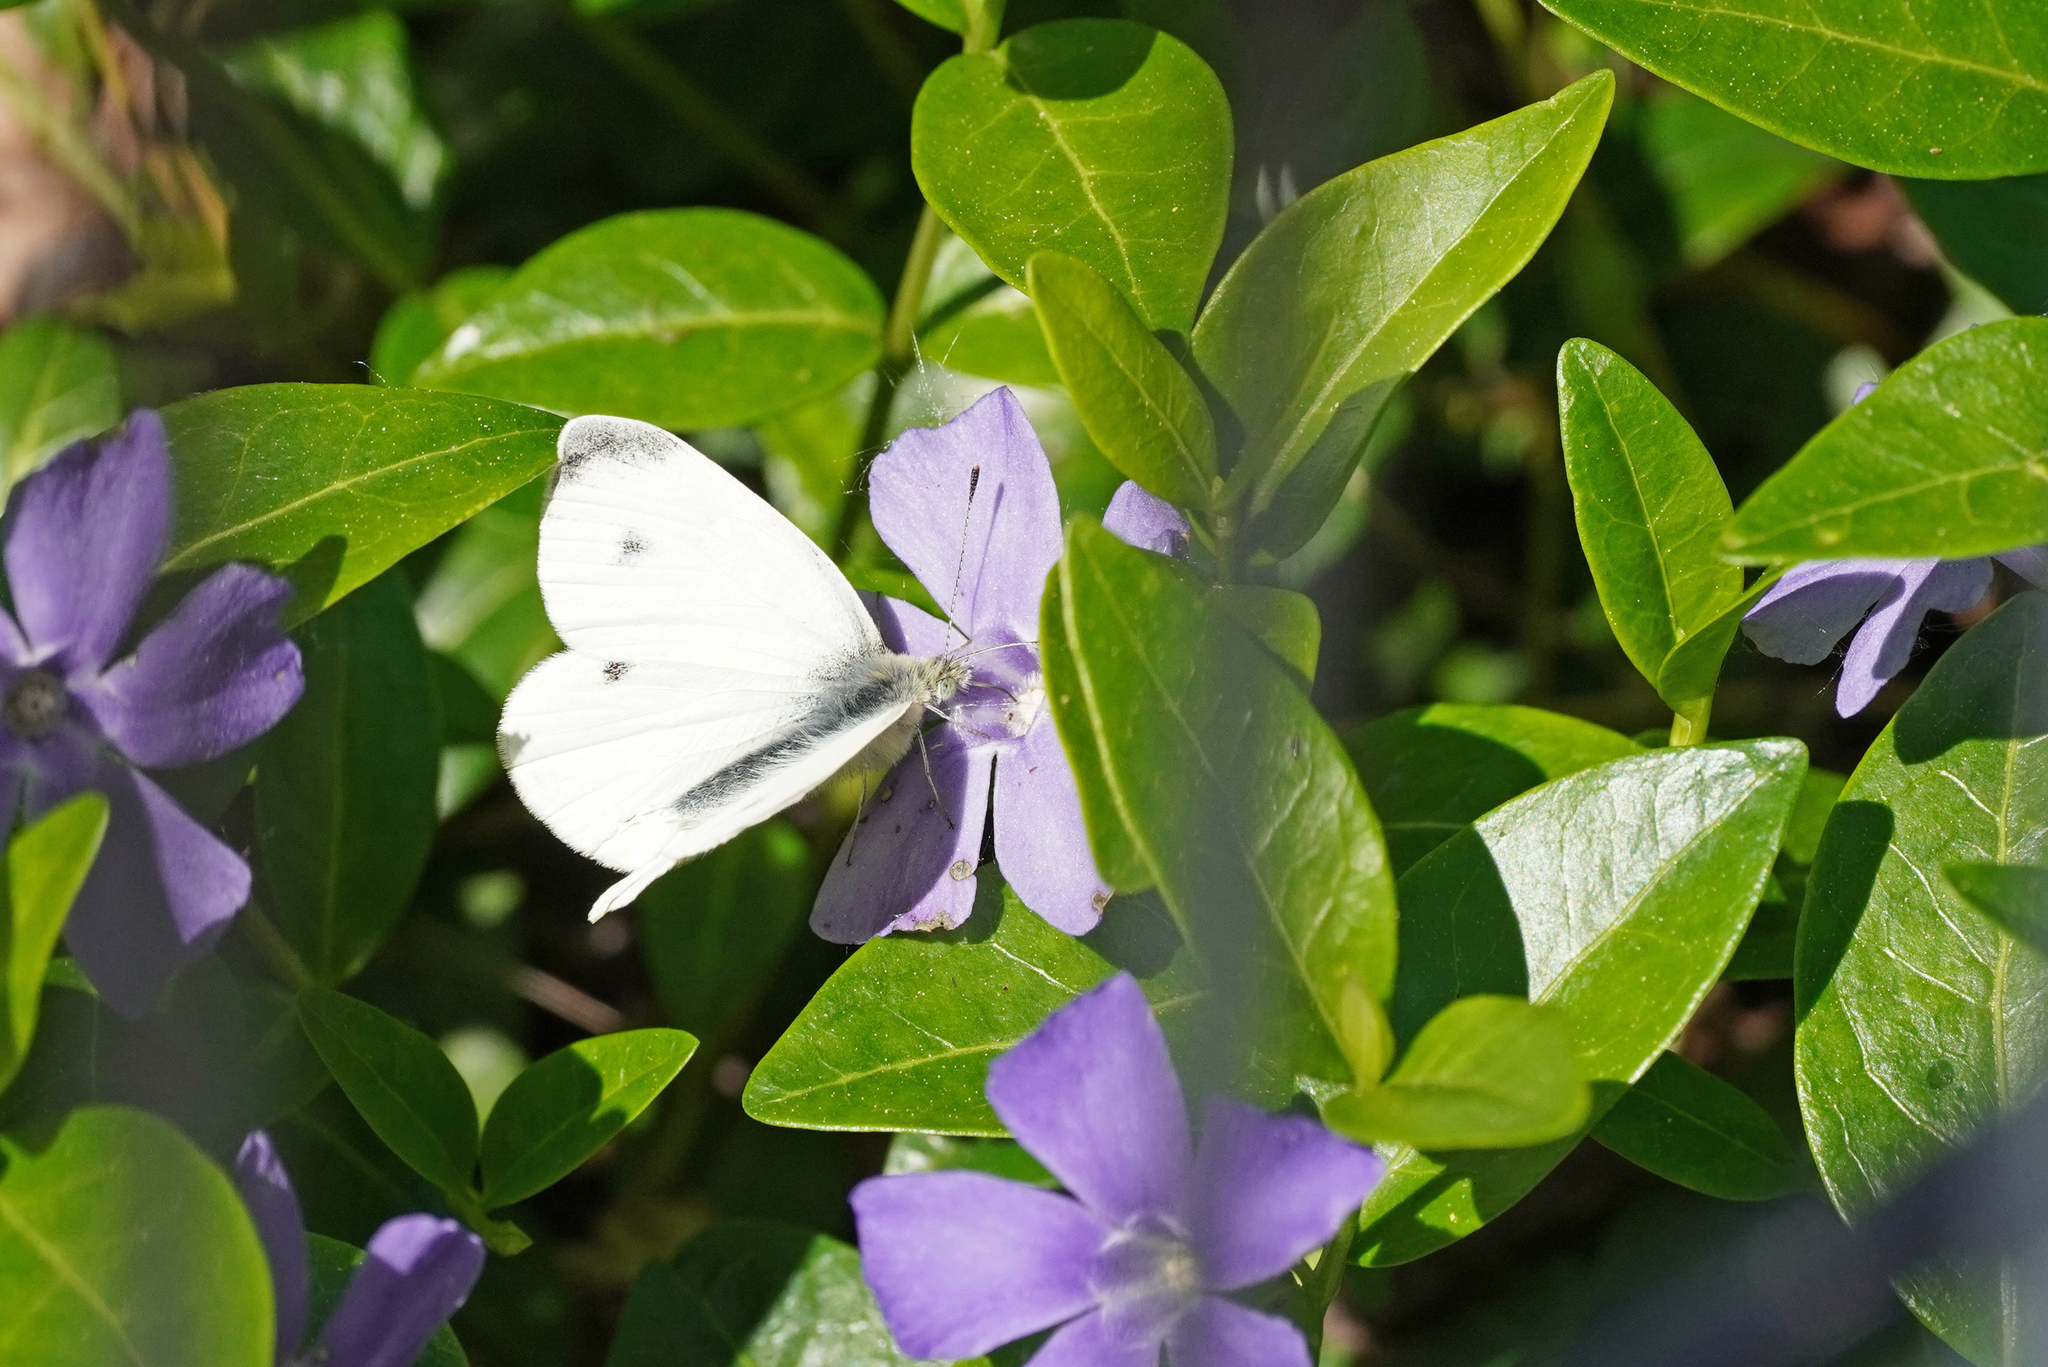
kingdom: Animalia
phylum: Arthropoda
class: Insecta
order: Lepidoptera
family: Pieridae
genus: Pieris
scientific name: Pieris rapae
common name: Small white
